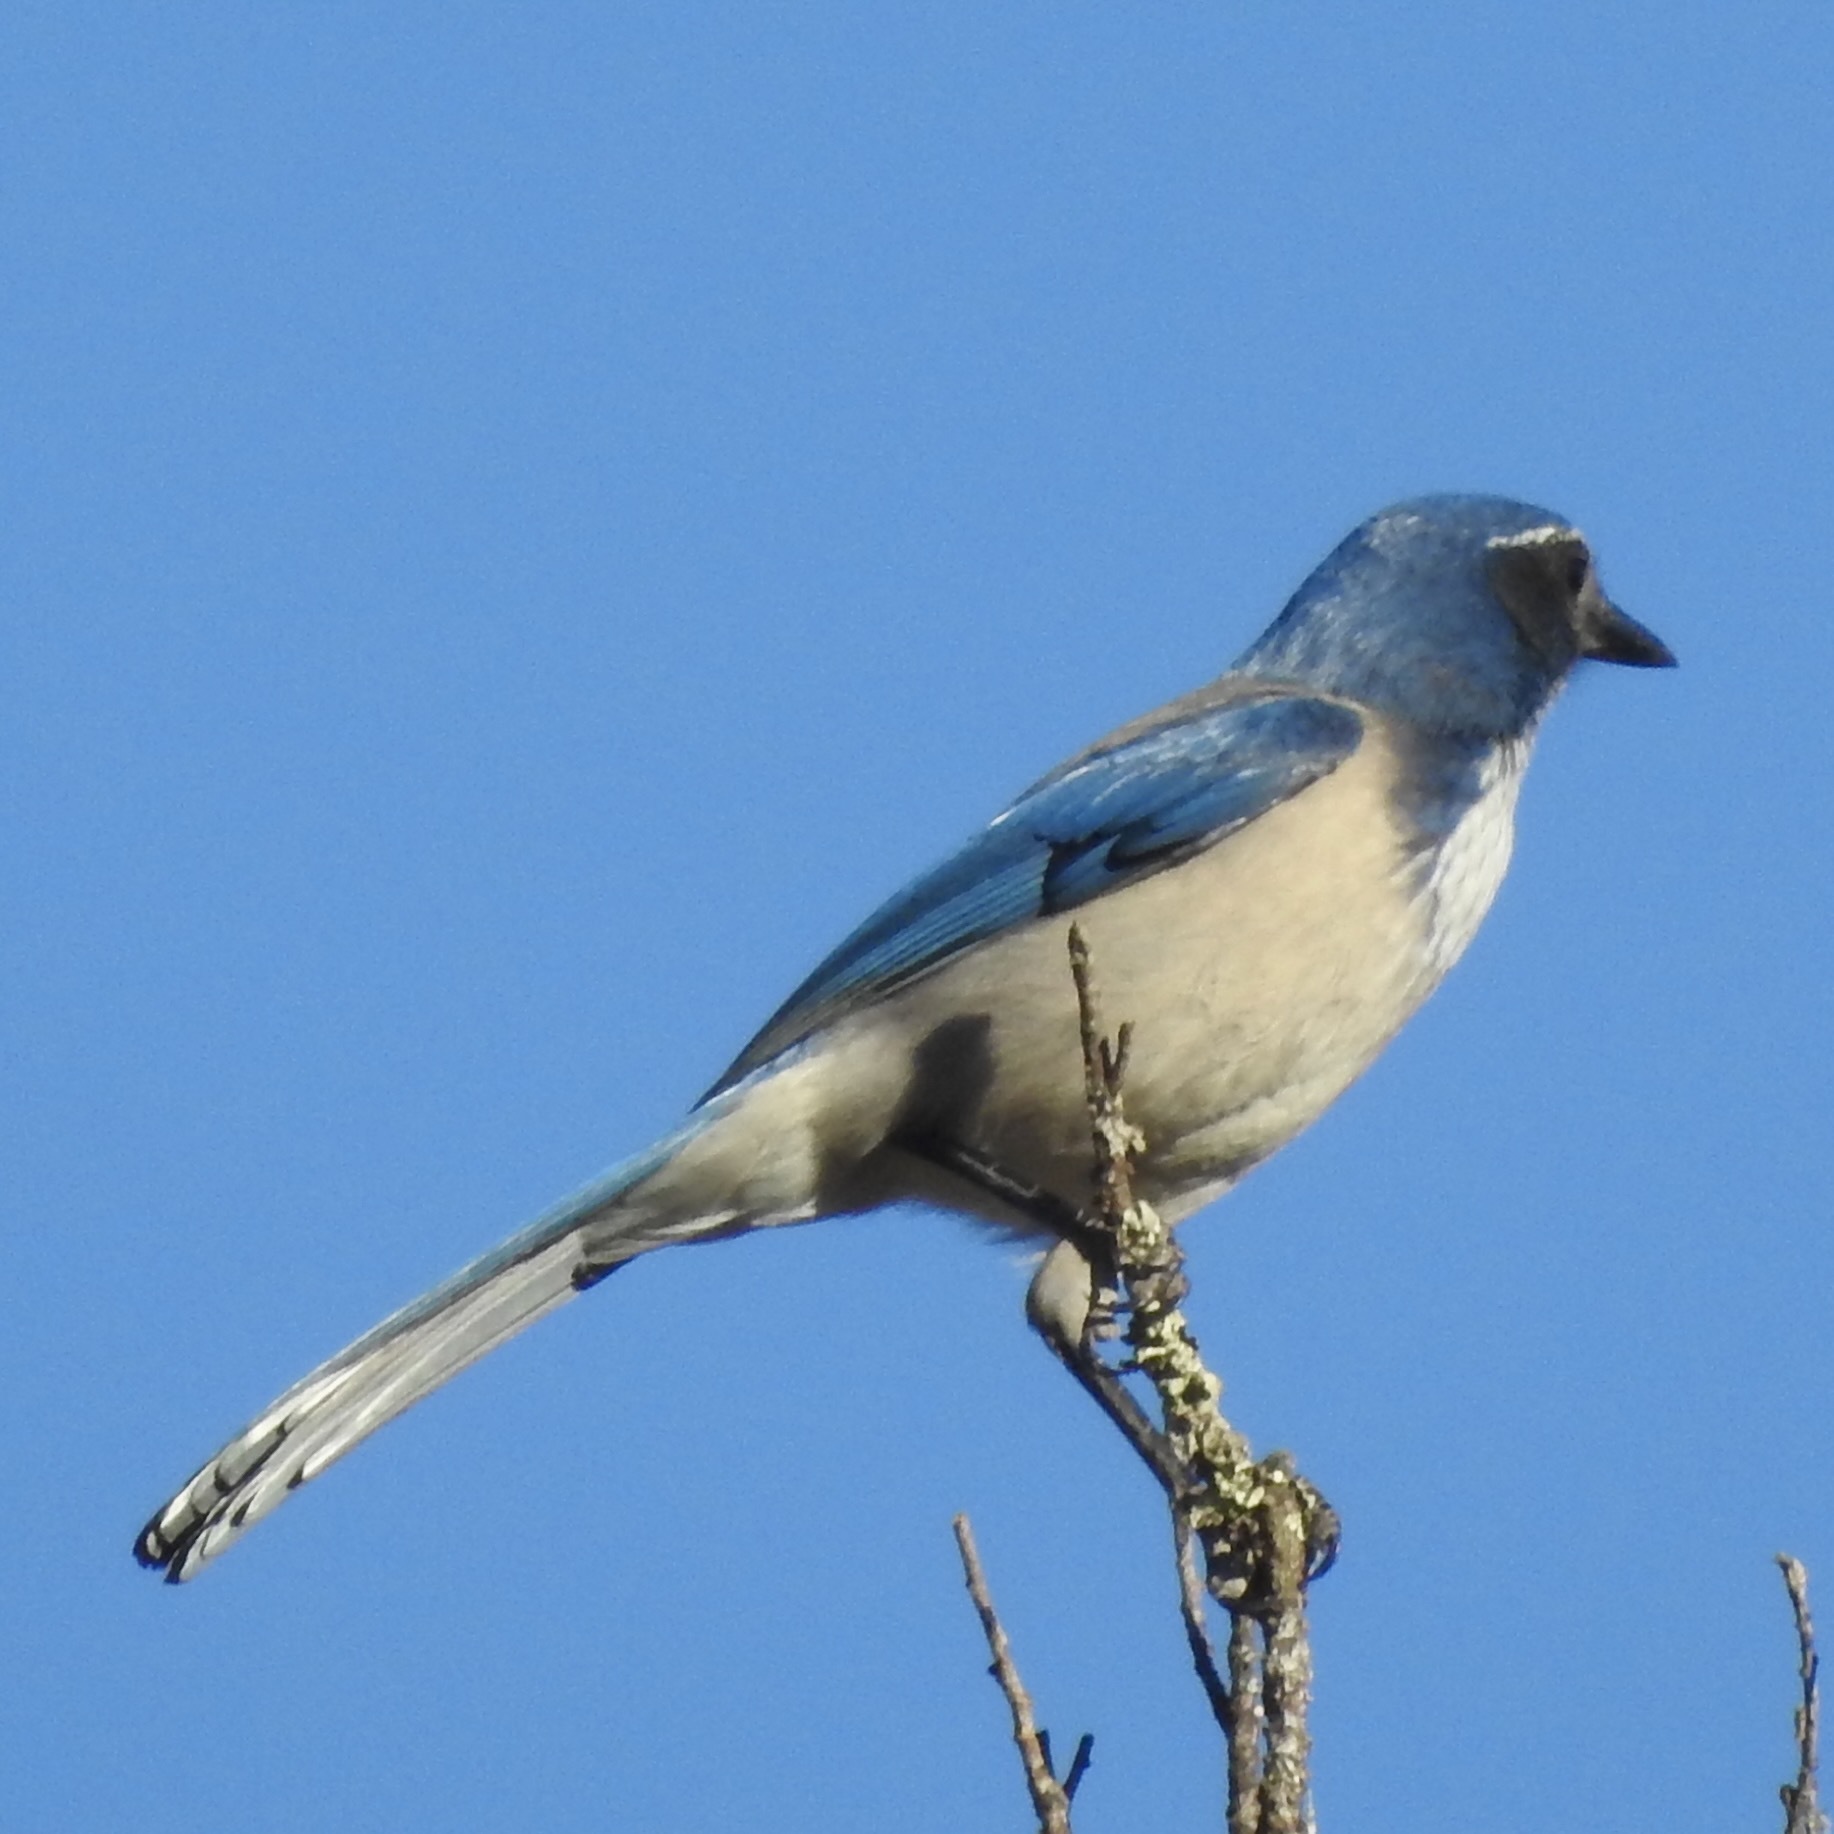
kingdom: Animalia
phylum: Chordata
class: Aves
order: Passeriformes
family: Corvidae
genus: Aphelocoma
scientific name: Aphelocoma californica
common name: California scrub-jay
